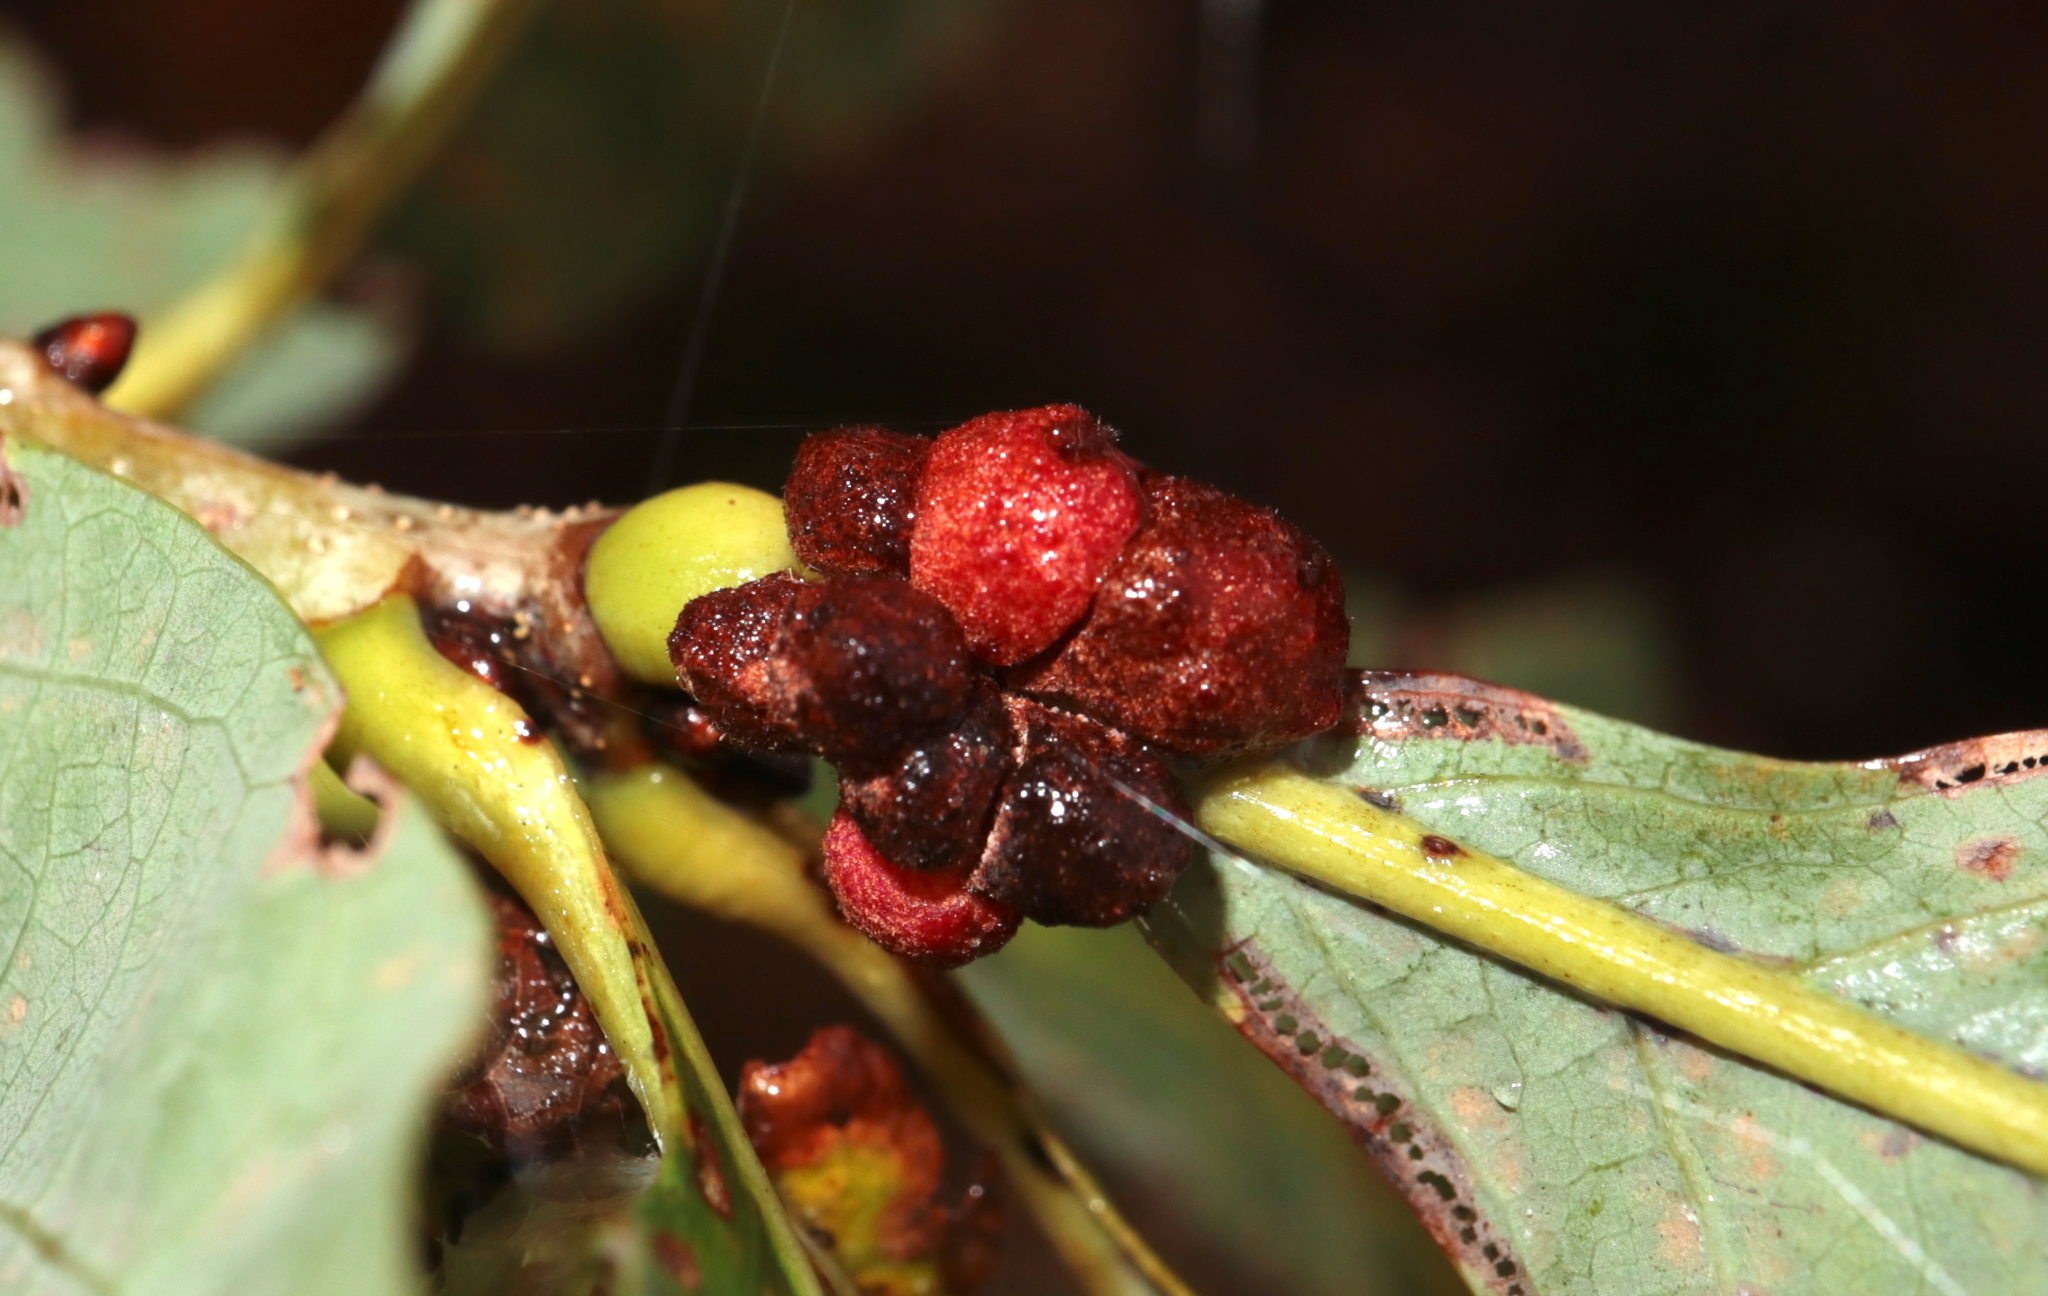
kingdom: Animalia
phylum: Arthropoda
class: Insecta
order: Hymenoptera
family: Cynipidae
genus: Andricus
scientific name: Andricus
